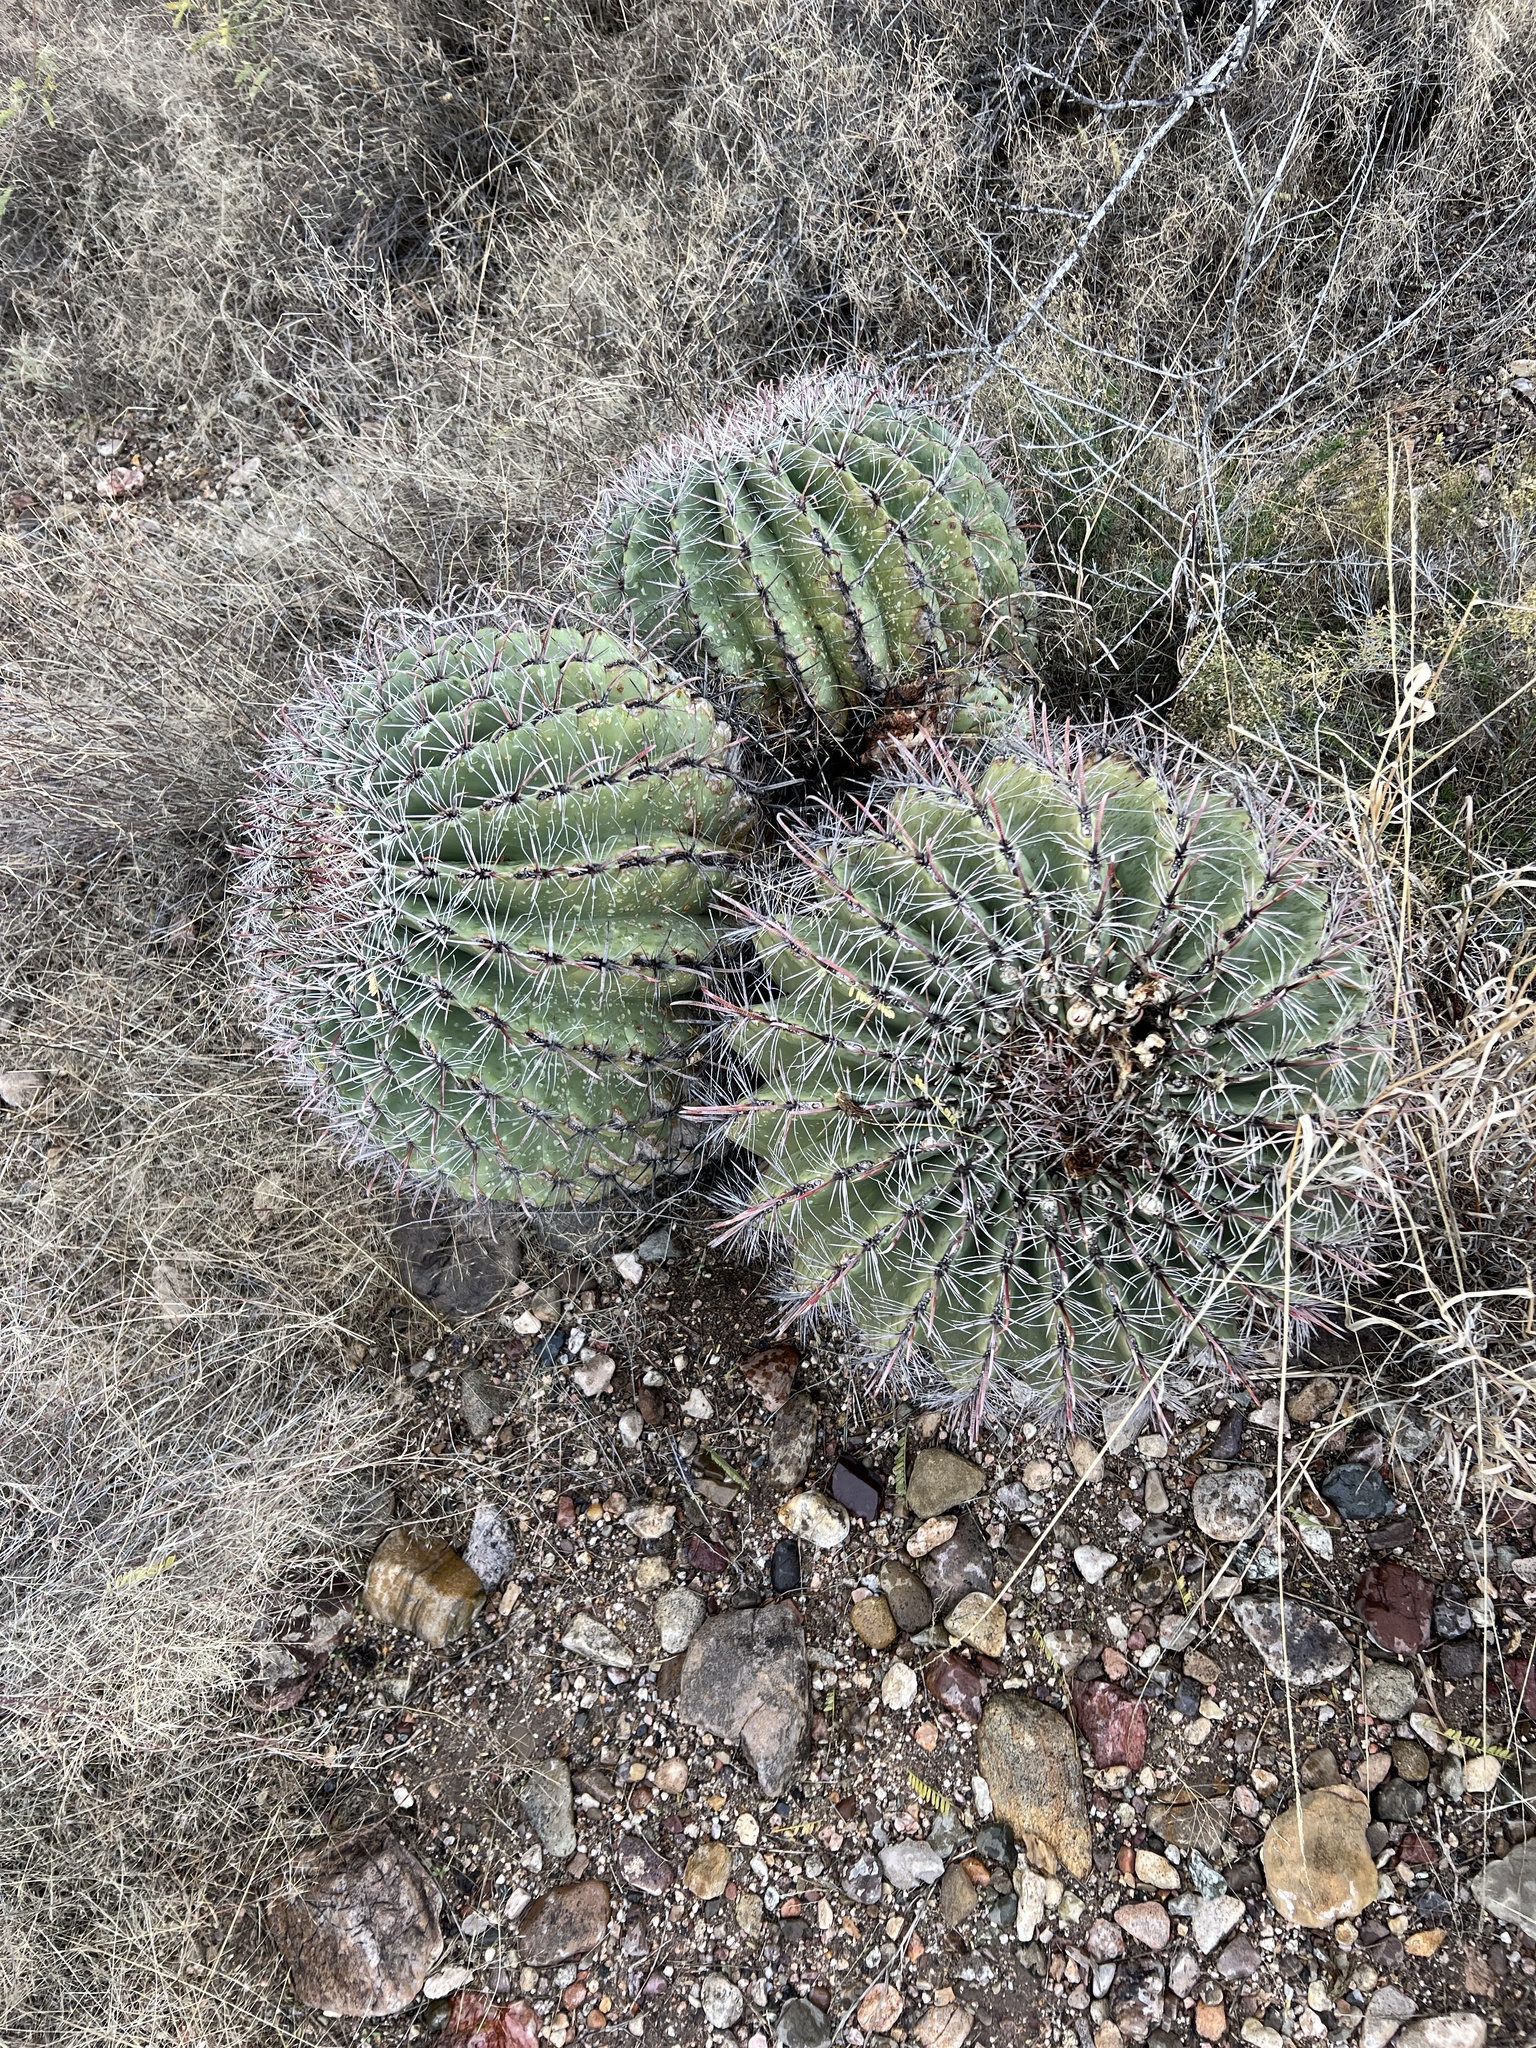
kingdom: Plantae
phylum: Tracheophyta
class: Magnoliopsida
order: Caryophyllales
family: Cactaceae
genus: Ferocactus
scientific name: Ferocactus wislizeni
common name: Candy barrel cactus
